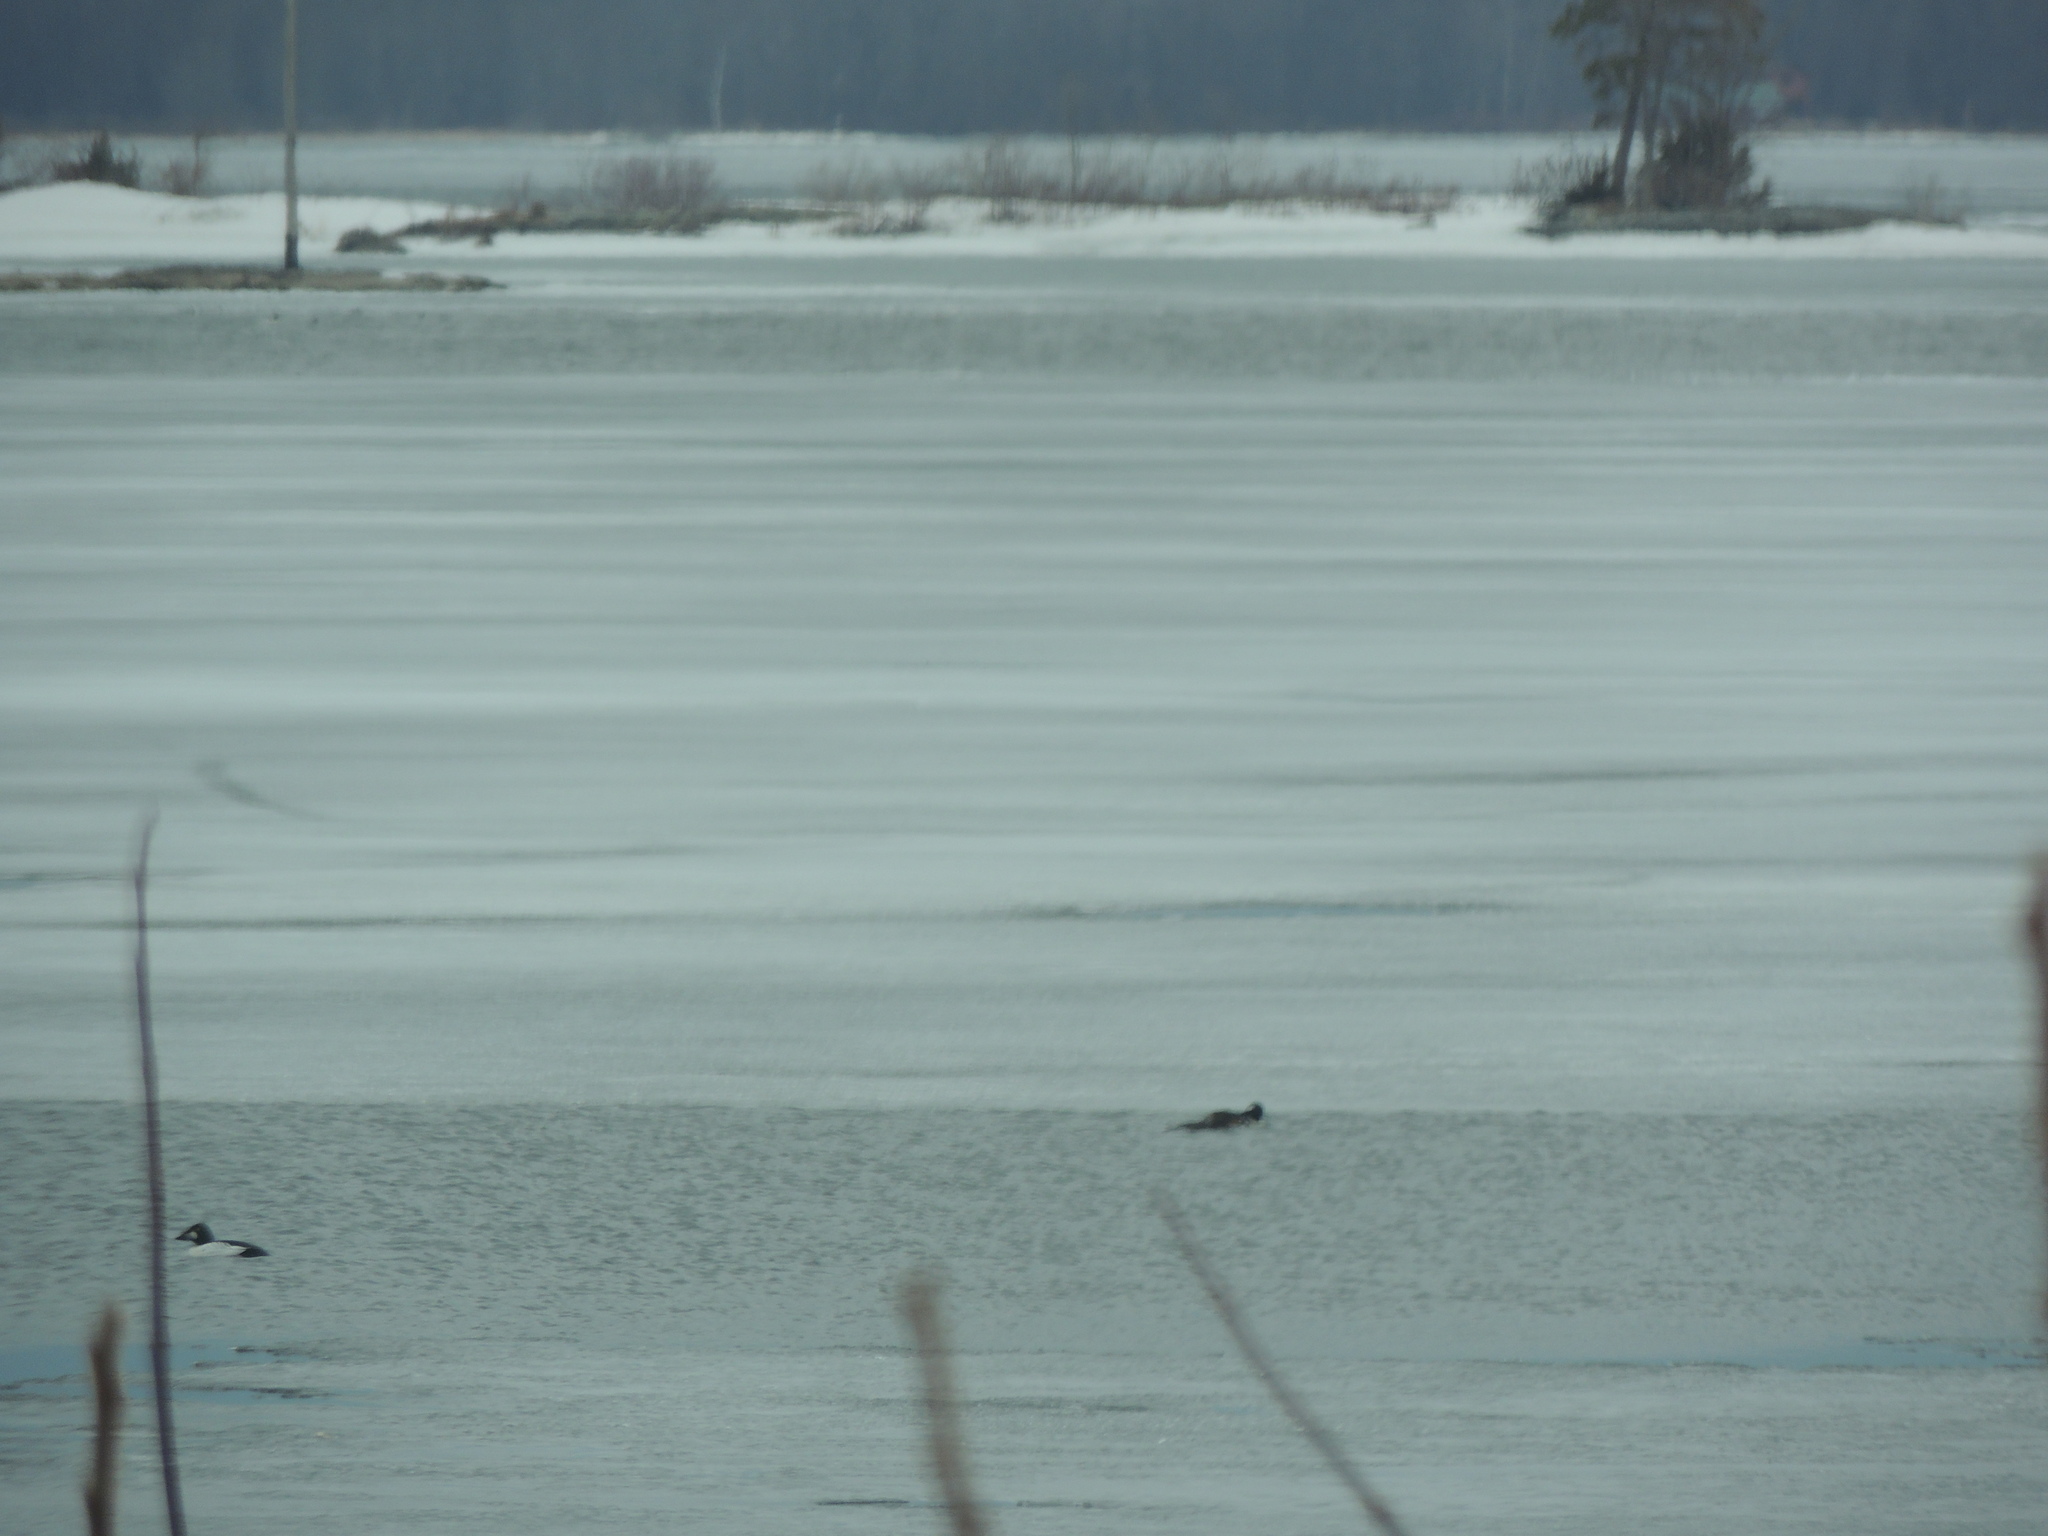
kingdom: Animalia
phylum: Chordata
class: Aves
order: Anseriformes
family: Anatidae
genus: Bucephala
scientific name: Bucephala clangula
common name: Common goldeneye
